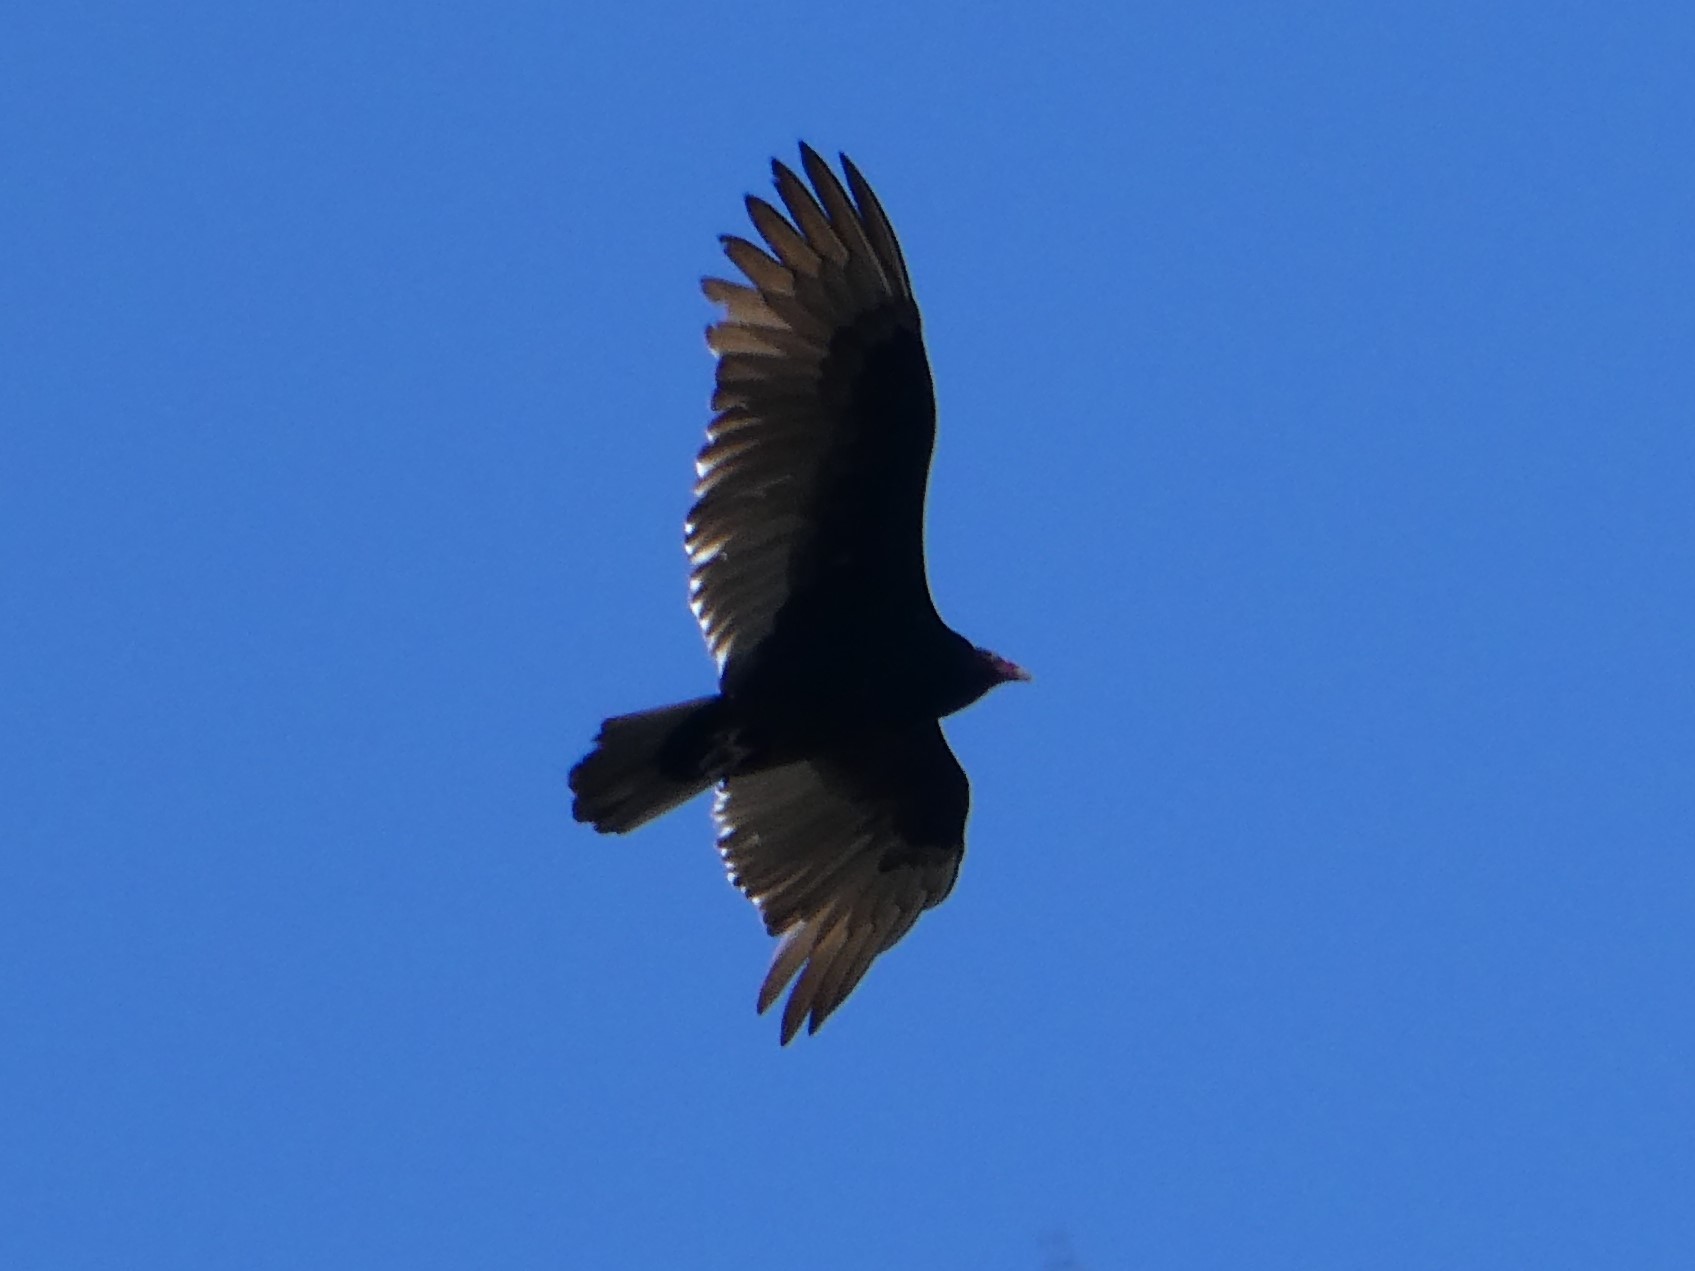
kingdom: Animalia
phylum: Chordata
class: Aves
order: Accipitriformes
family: Cathartidae
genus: Cathartes
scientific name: Cathartes aura
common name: Turkey vulture
